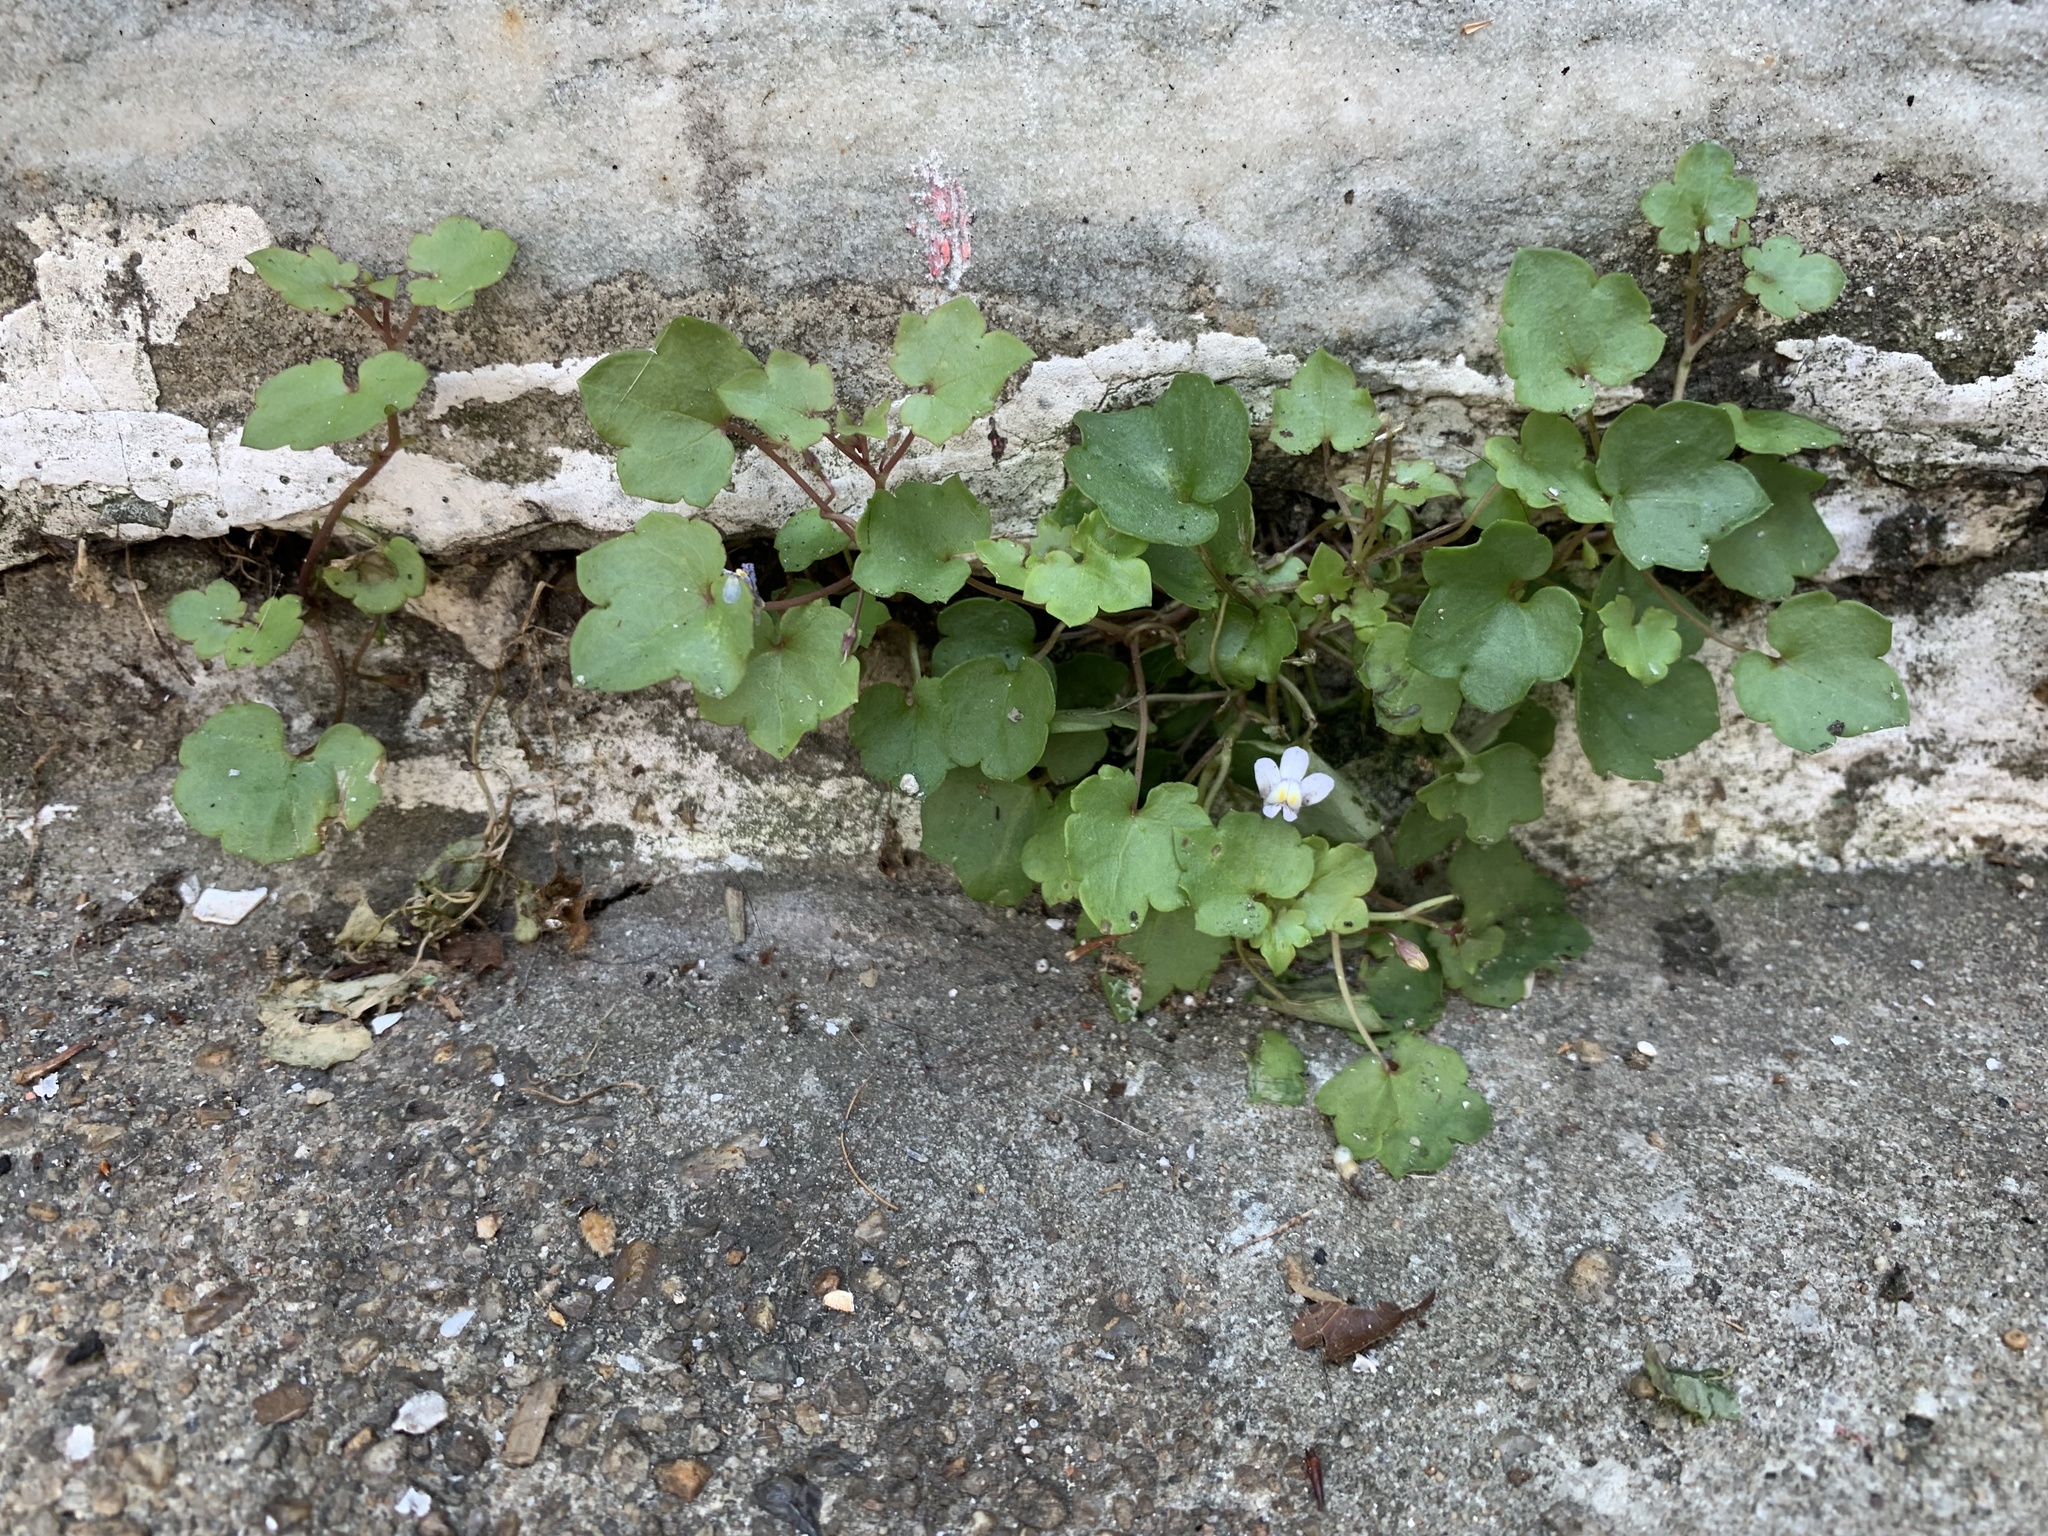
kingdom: Plantae
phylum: Tracheophyta
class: Magnoliopsida
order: Lamiales
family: Plantaginaceae
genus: Cymbalaria
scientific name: Cymbalaria muralis
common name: Ivy-leaved toadflax
